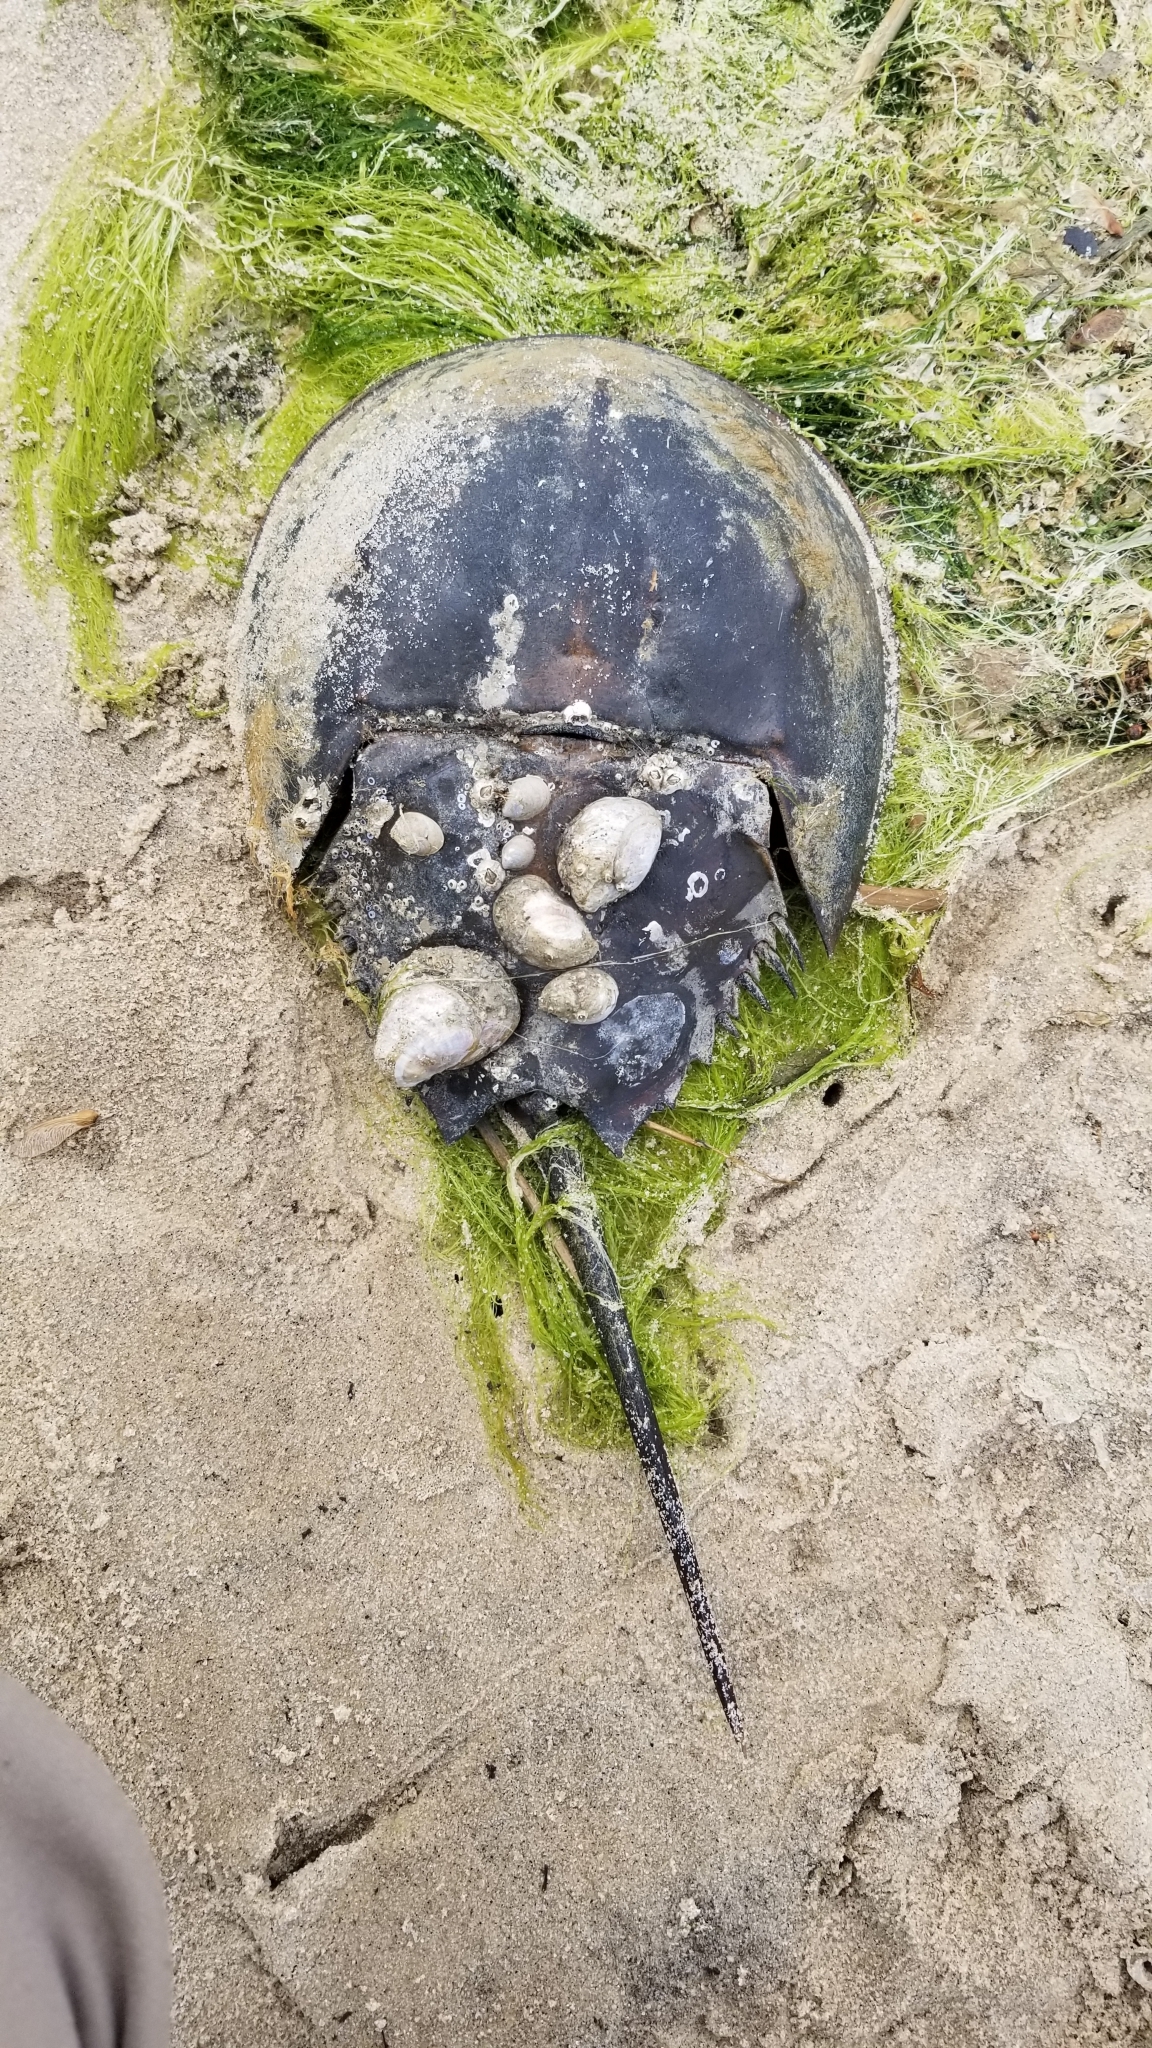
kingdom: Animalia
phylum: Arthropoda
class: Merostomata
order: Xiphosurida
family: Limulidae
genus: Limulus
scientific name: Limulus polyphemus
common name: Horseshoe crab
